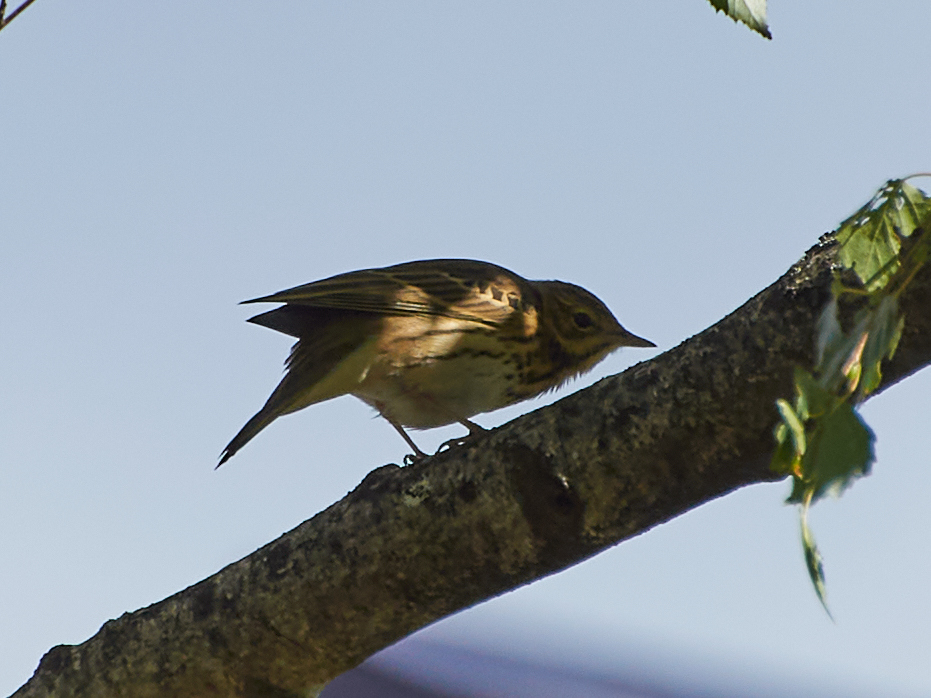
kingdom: Animalia
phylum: Chordata
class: Aves
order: Passeriformes
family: Motacillidae
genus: Anthus
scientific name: Anthus trivialis
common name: Tree pipit
